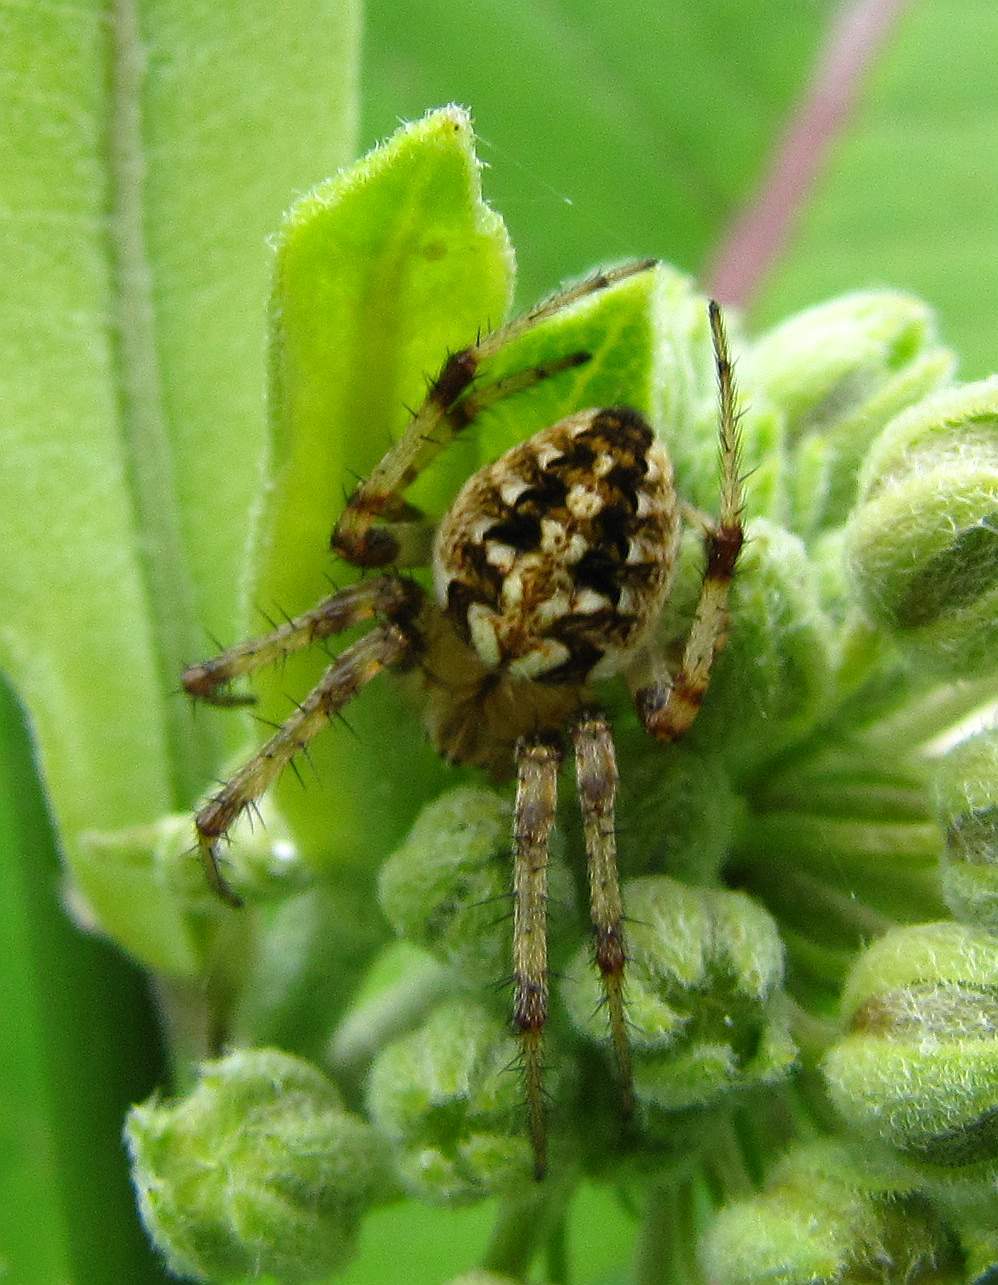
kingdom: Animalia
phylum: Arthropoda
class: Arachnida
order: Araneae
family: Araneidae
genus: Neoscona
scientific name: Neoscona arabesca
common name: Orb weavers
